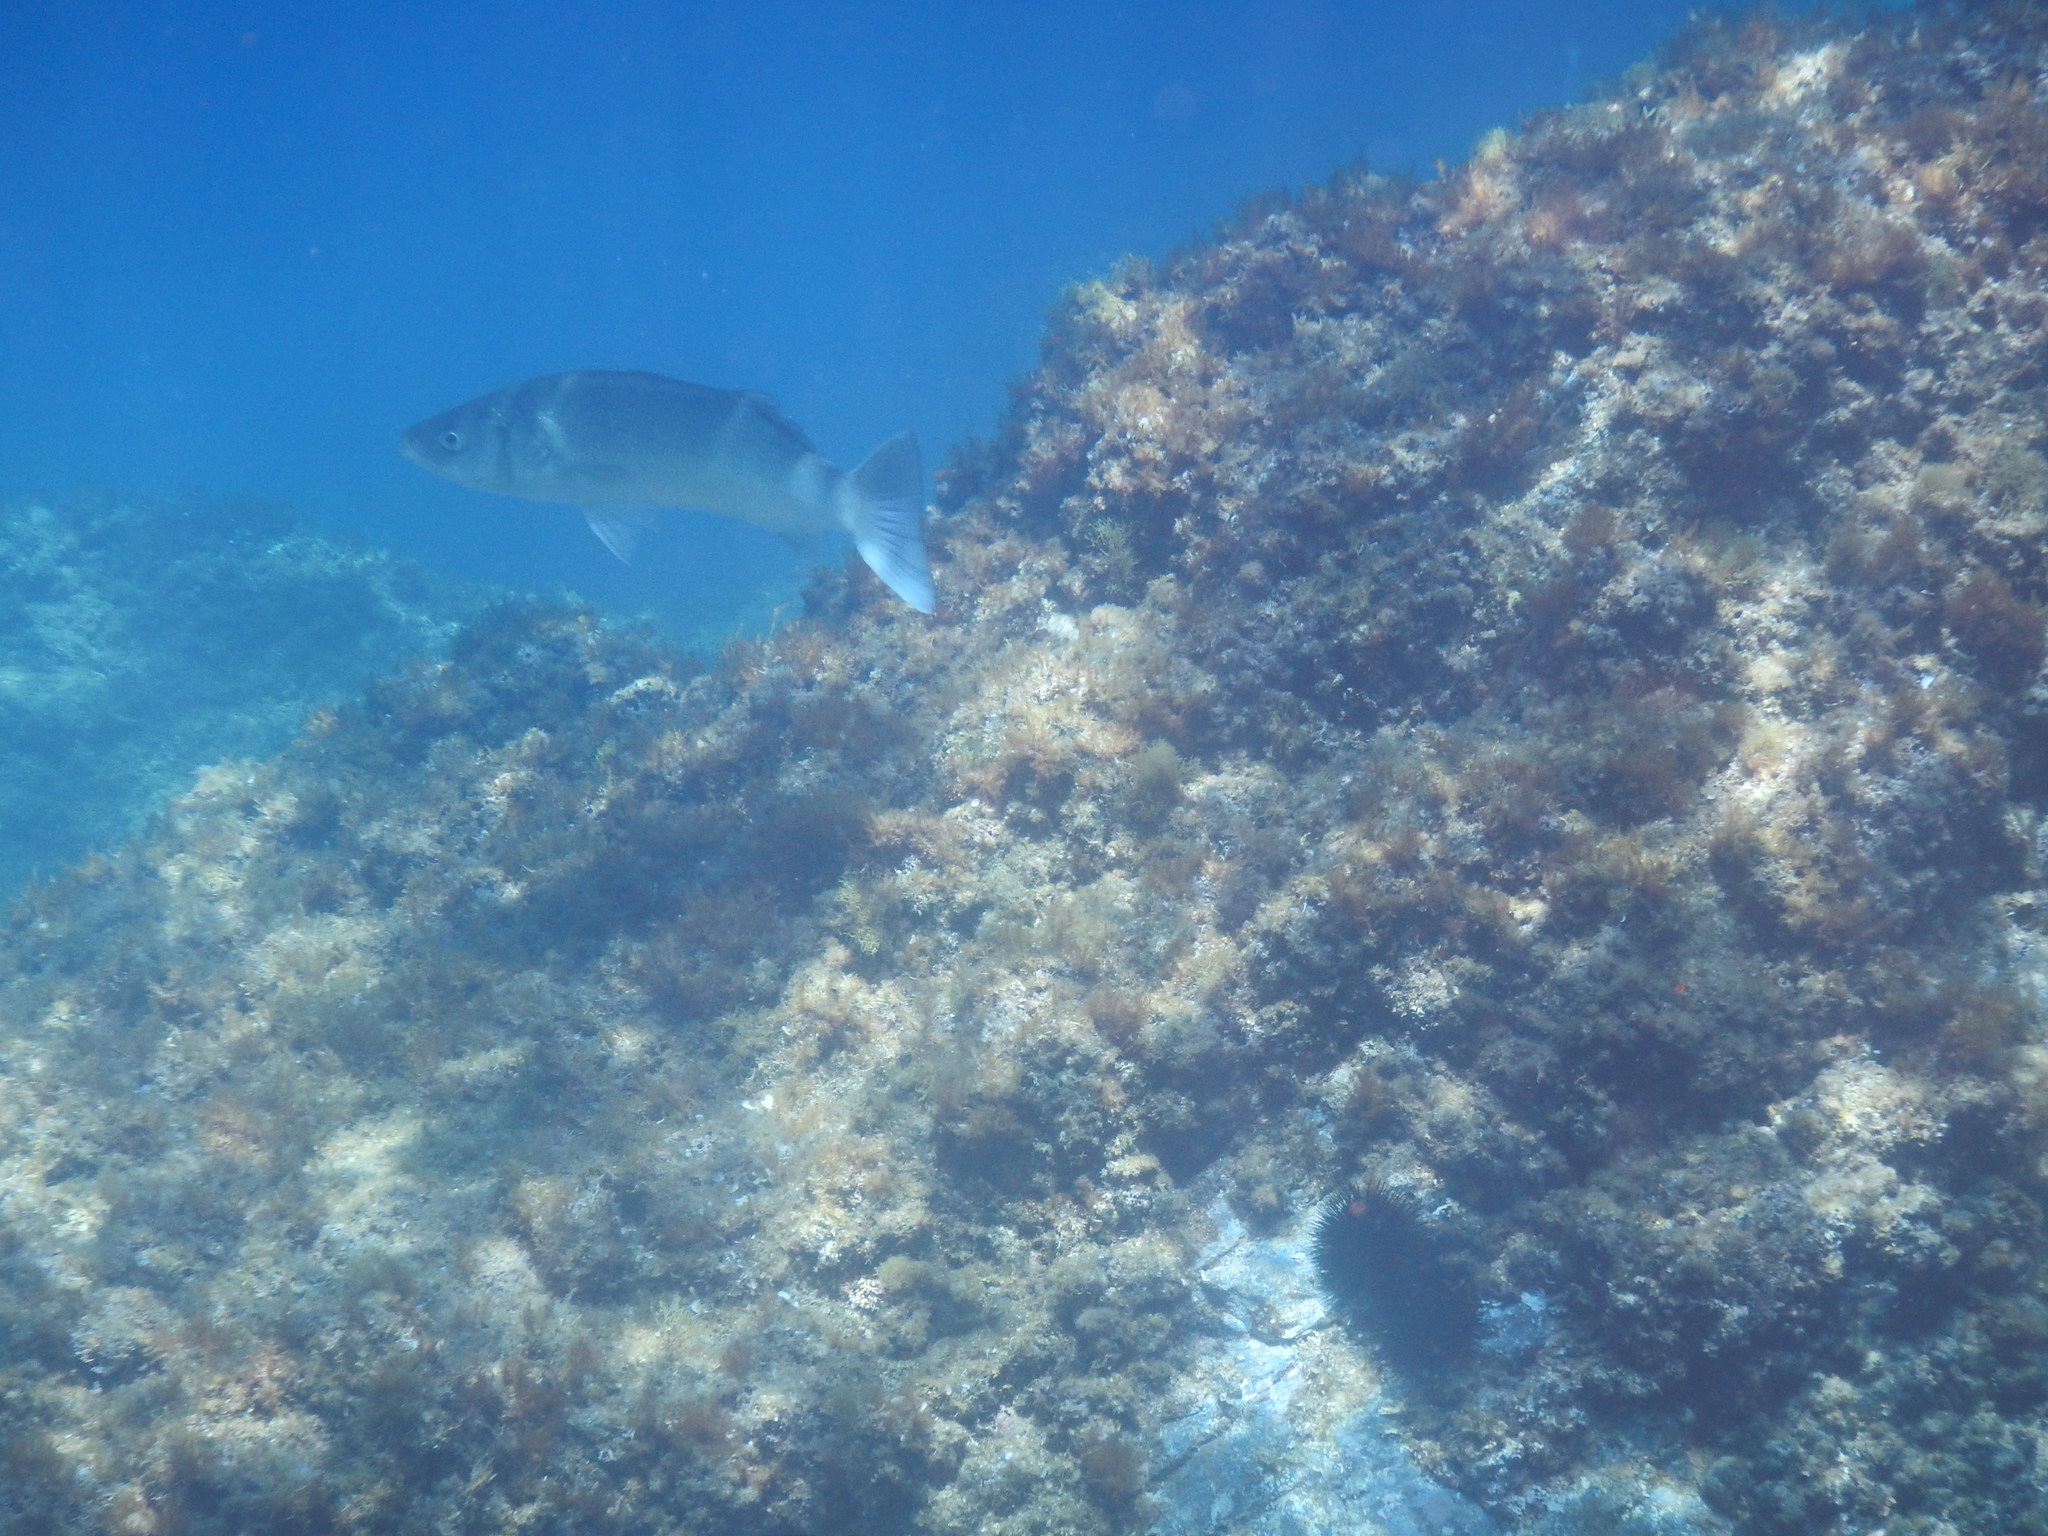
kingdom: Animalia
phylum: Chordata
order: Perciformes
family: Moronidae
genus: Dicentrarchus
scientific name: Dicentrarchus labrax
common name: European seabass
